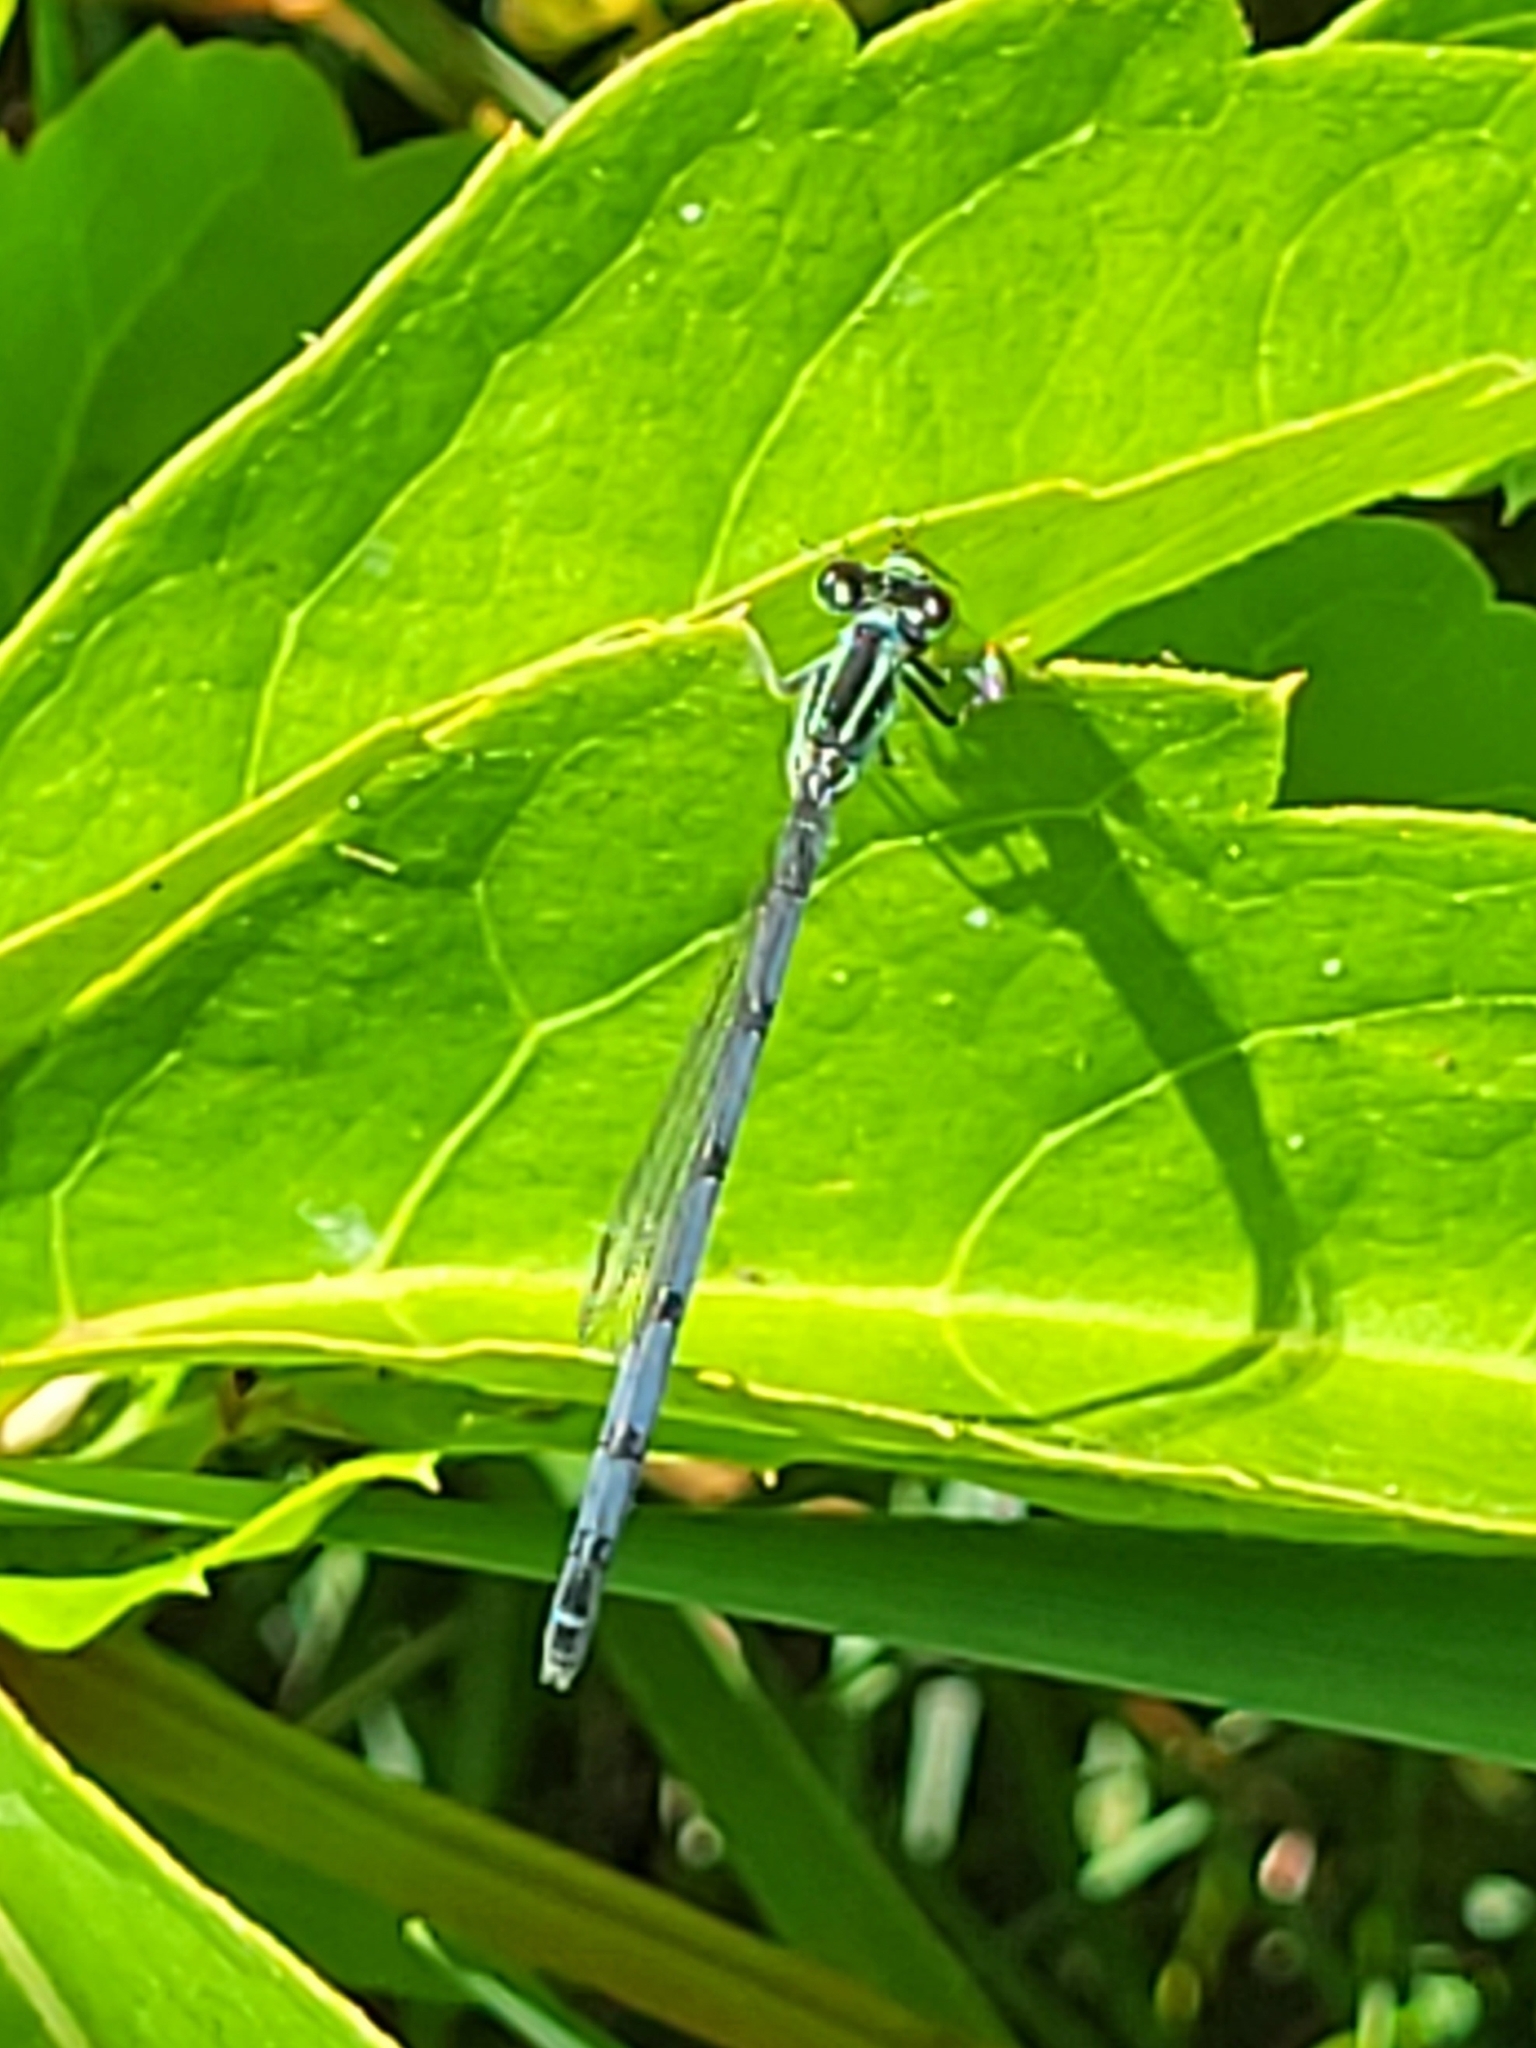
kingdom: Animalia
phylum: Arthropoda
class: Insecta
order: Odonata
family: Coenagrionidae
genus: Ischnura
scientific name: Ischnura verticalis
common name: Eastern forktail
